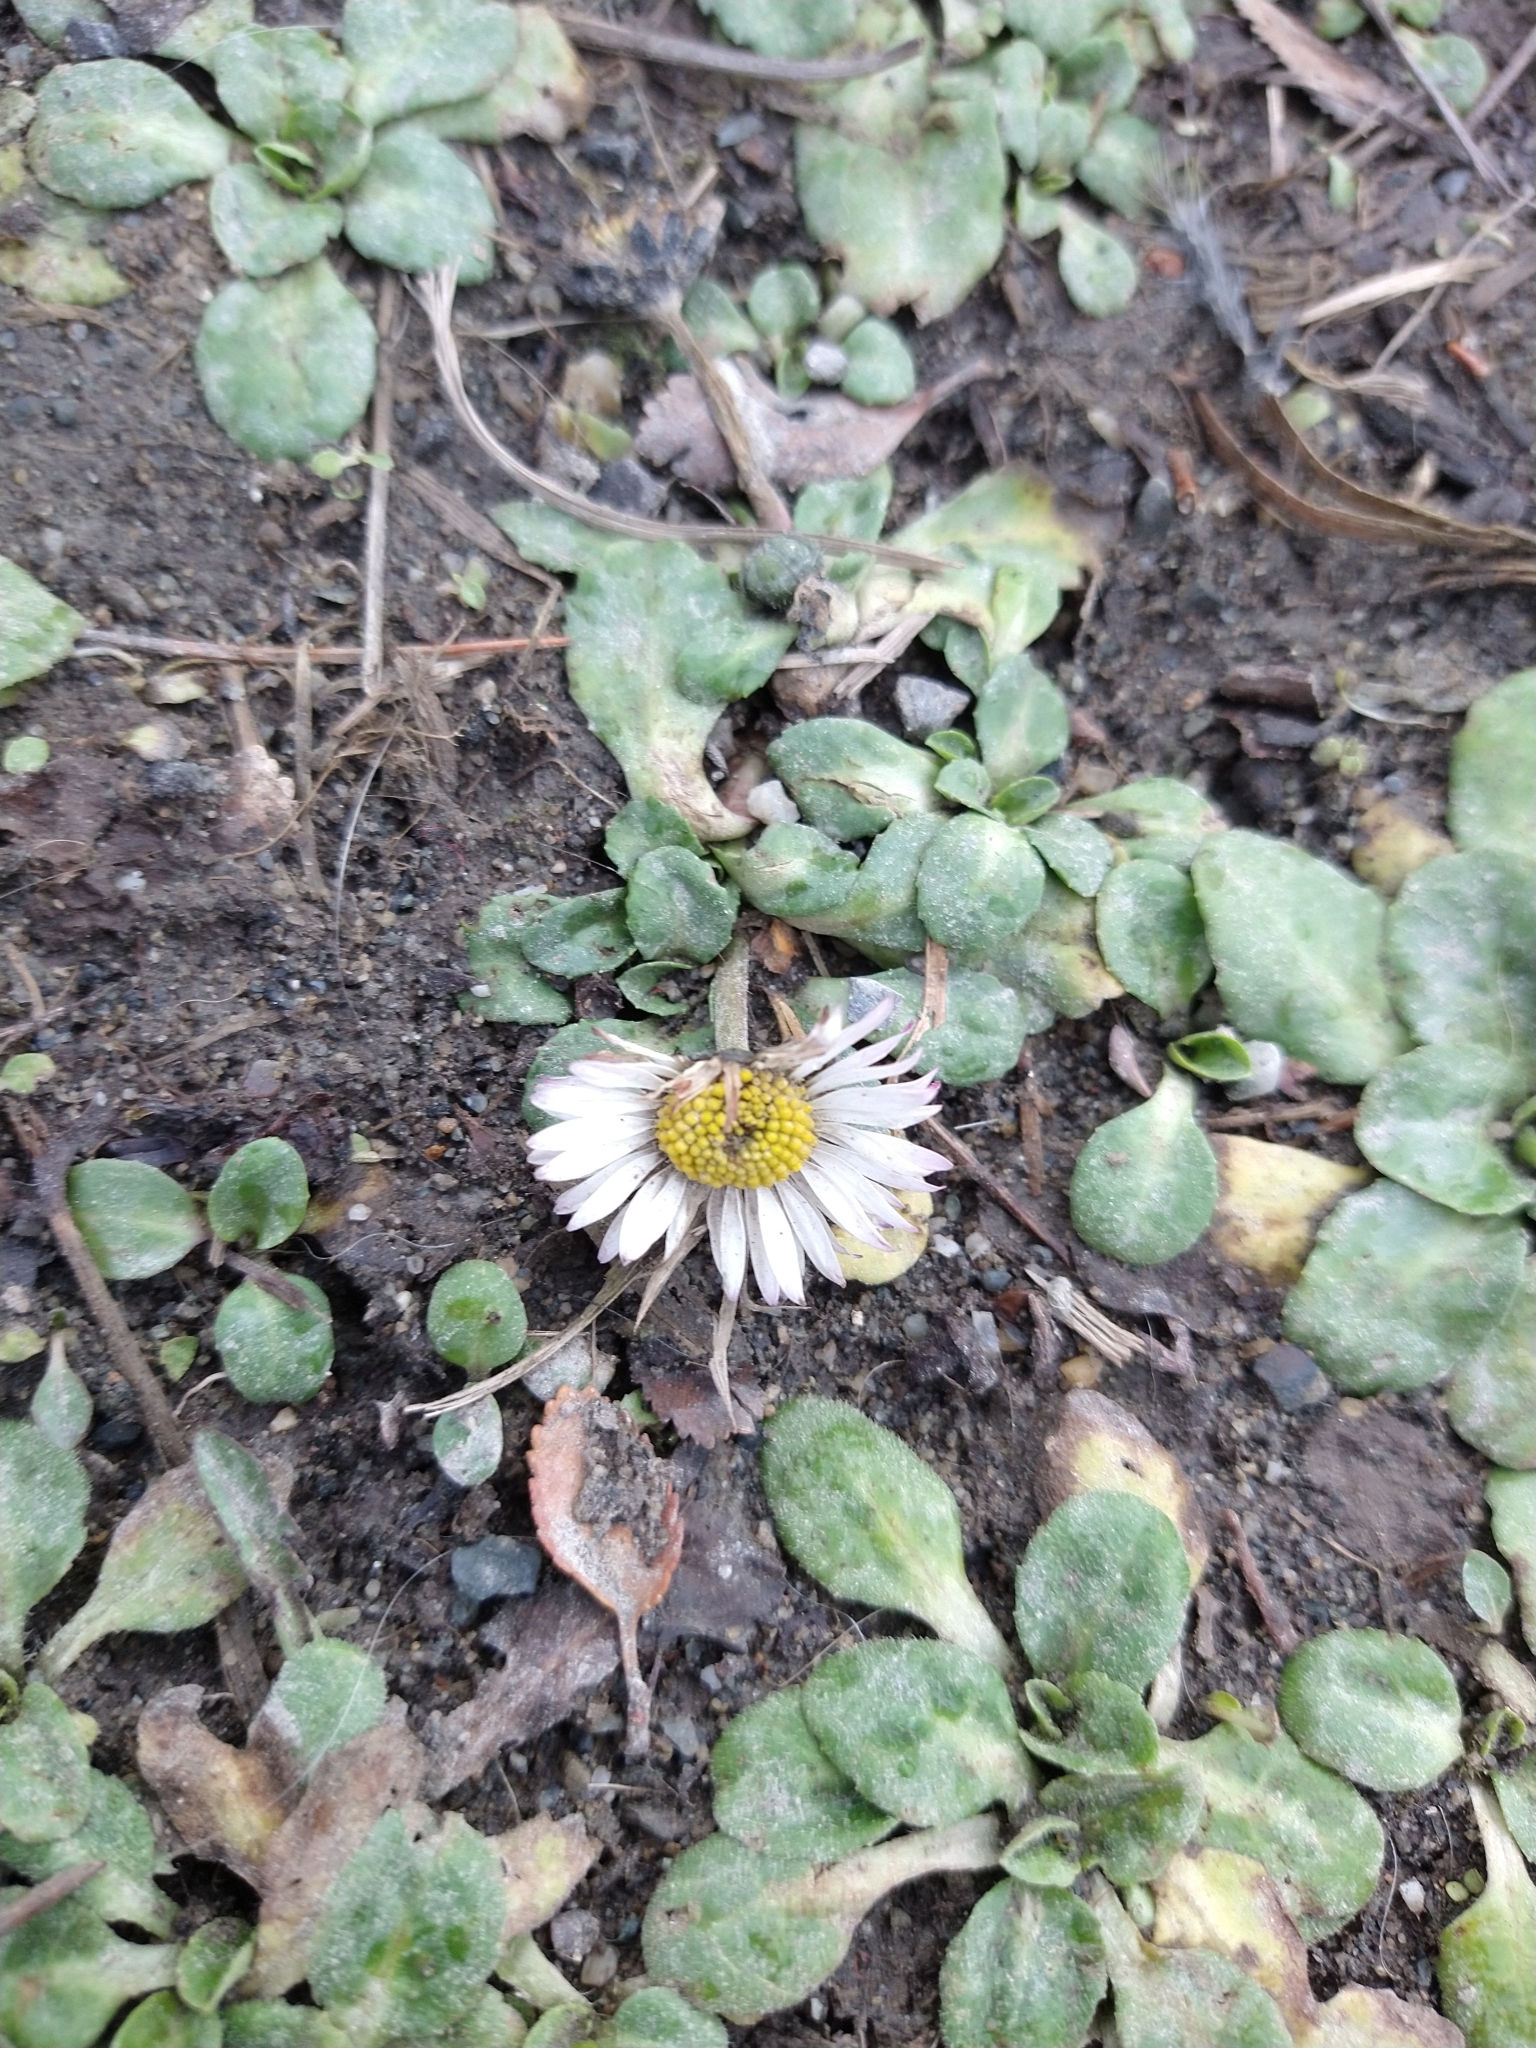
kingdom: Plantae
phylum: Tracheophyta
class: Magnoliopsida
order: Asterales
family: Asteraceae
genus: Bellis
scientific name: Bellis perennis
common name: Lawndaisy
